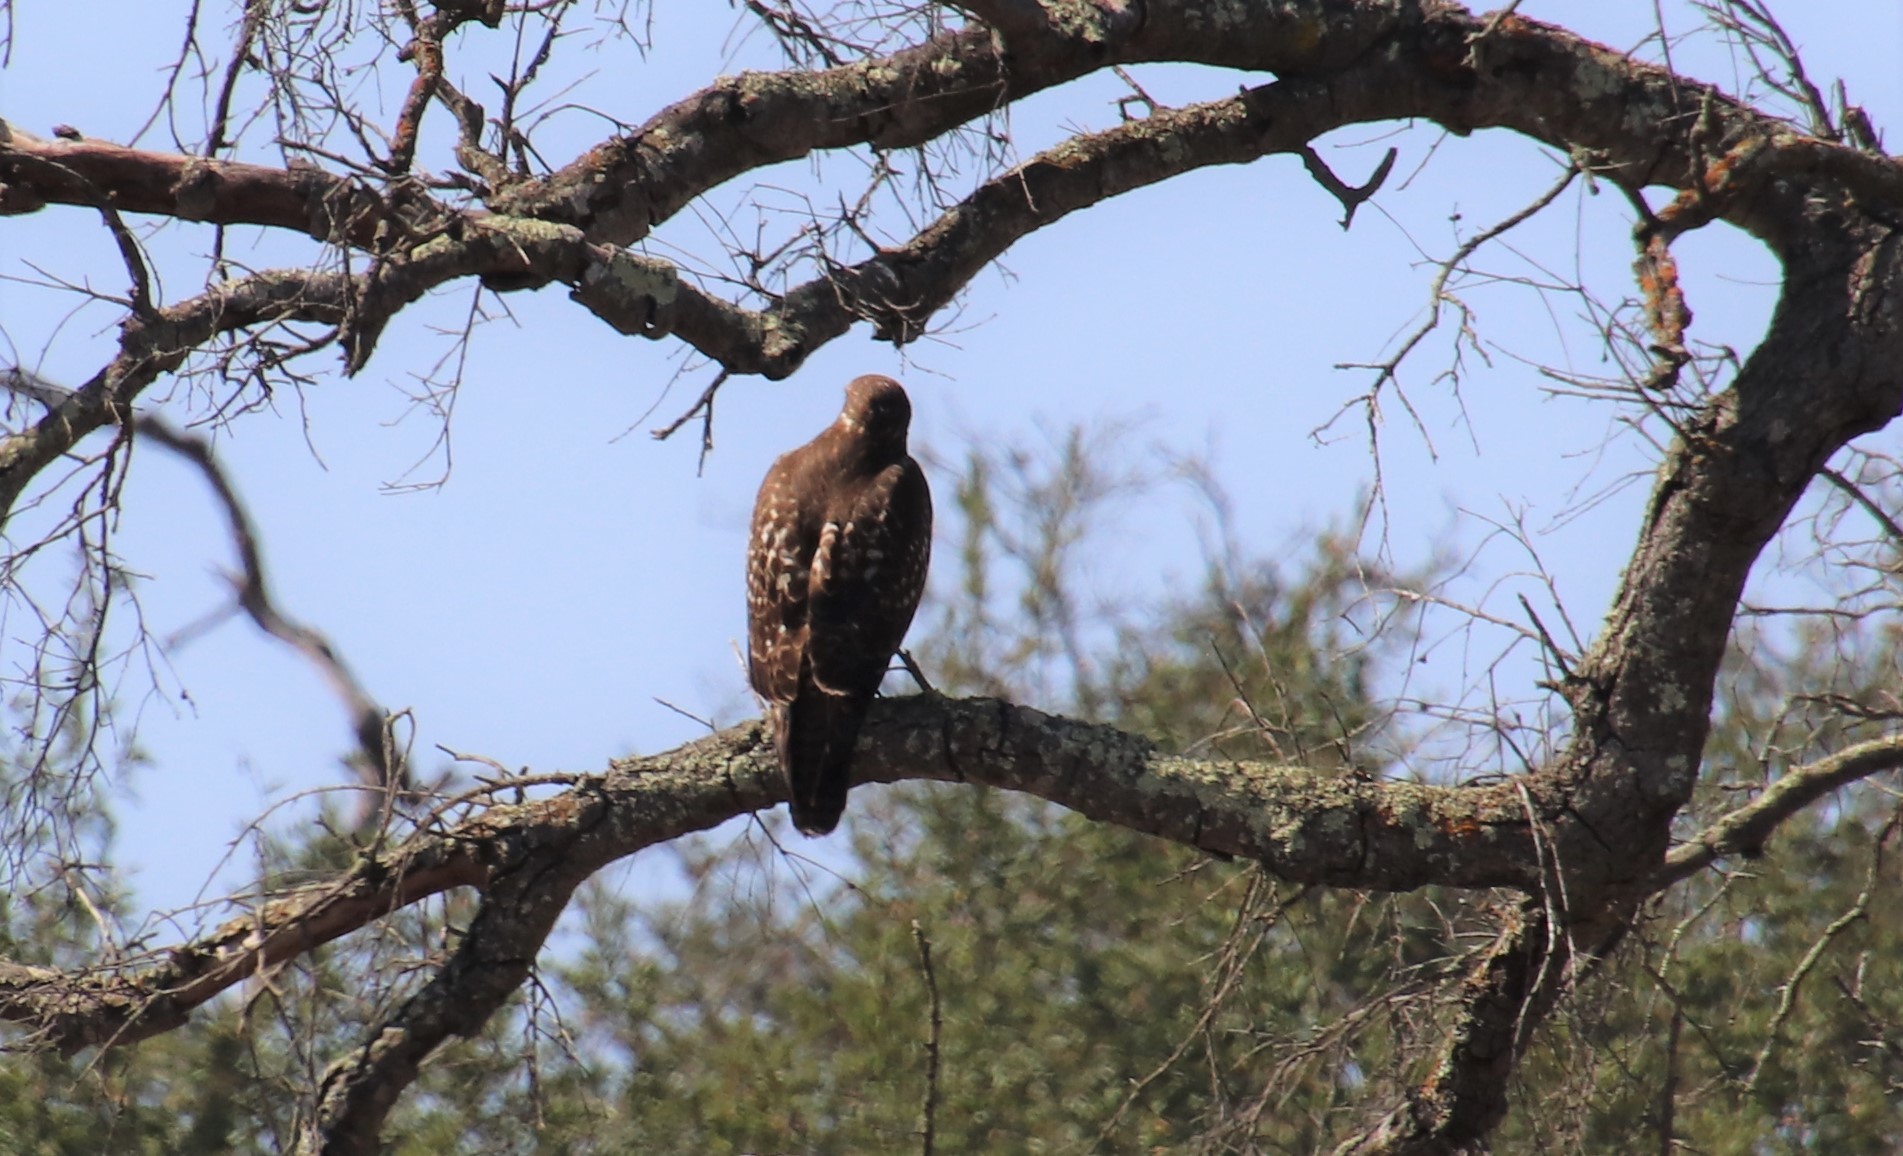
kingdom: Animalia
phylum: Chordata
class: Aves
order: Accipitriformes
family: Accipitridae
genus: Buteo
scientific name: Buteo jamaicensis
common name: Red-tailed hawk
